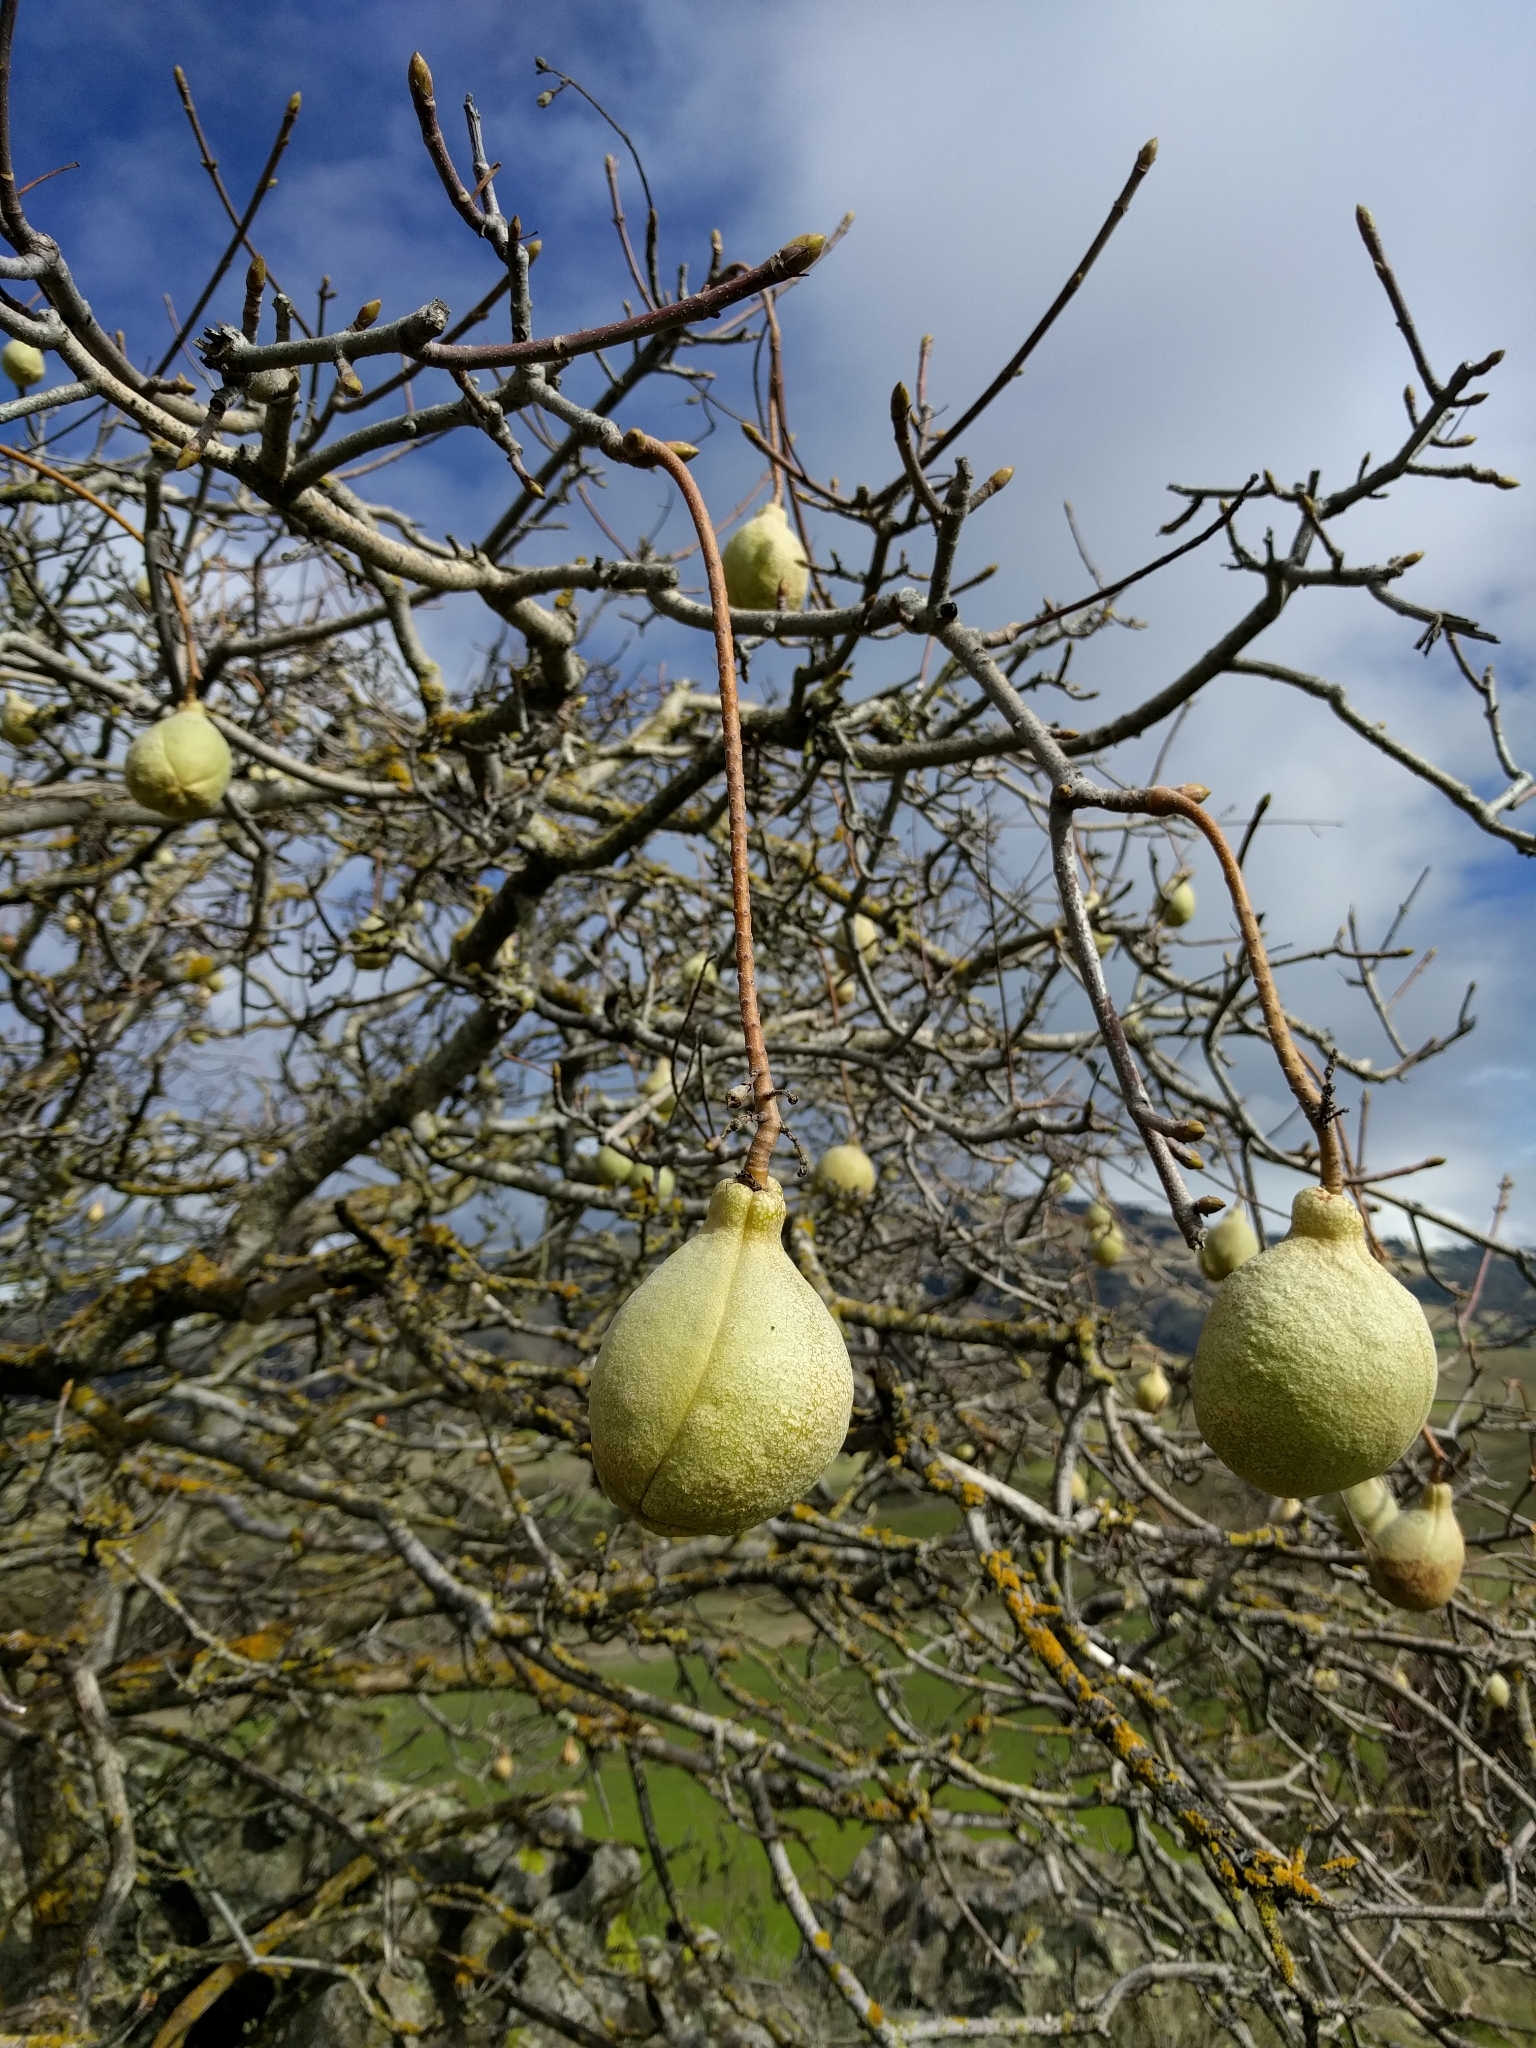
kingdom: Plantae
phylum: Tracheophyta
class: Magnoliopsida
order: Sapindales
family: Sapindaceae
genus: Aesculus
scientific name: Aesculus californica
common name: California buckeye
